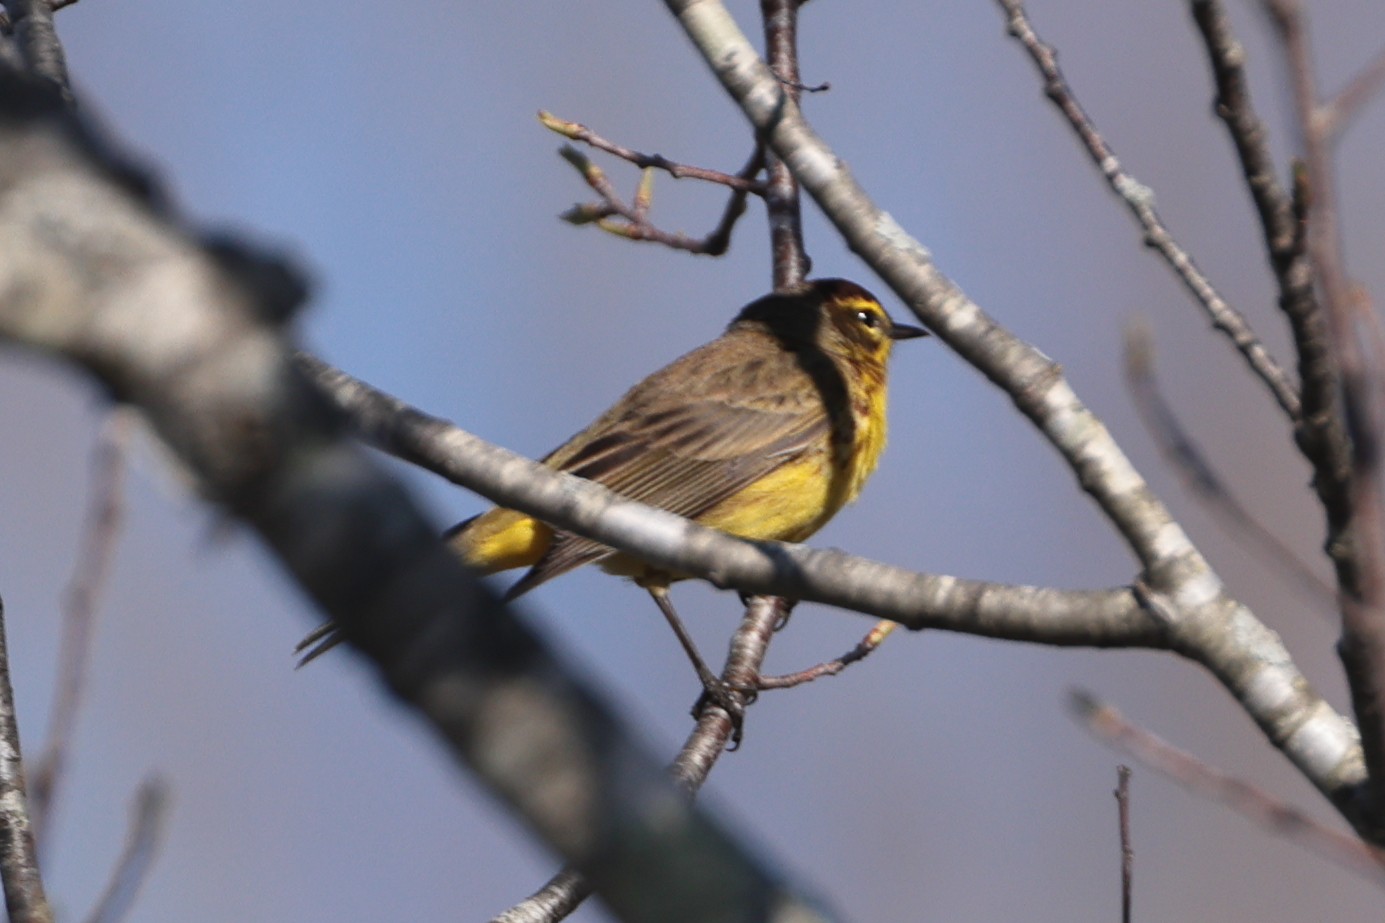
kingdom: Animalia
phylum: Chordata
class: Aves
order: Passeriformes
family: Parulidae
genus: Setophaga
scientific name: Setophaga palmarum
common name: Palm warbler
